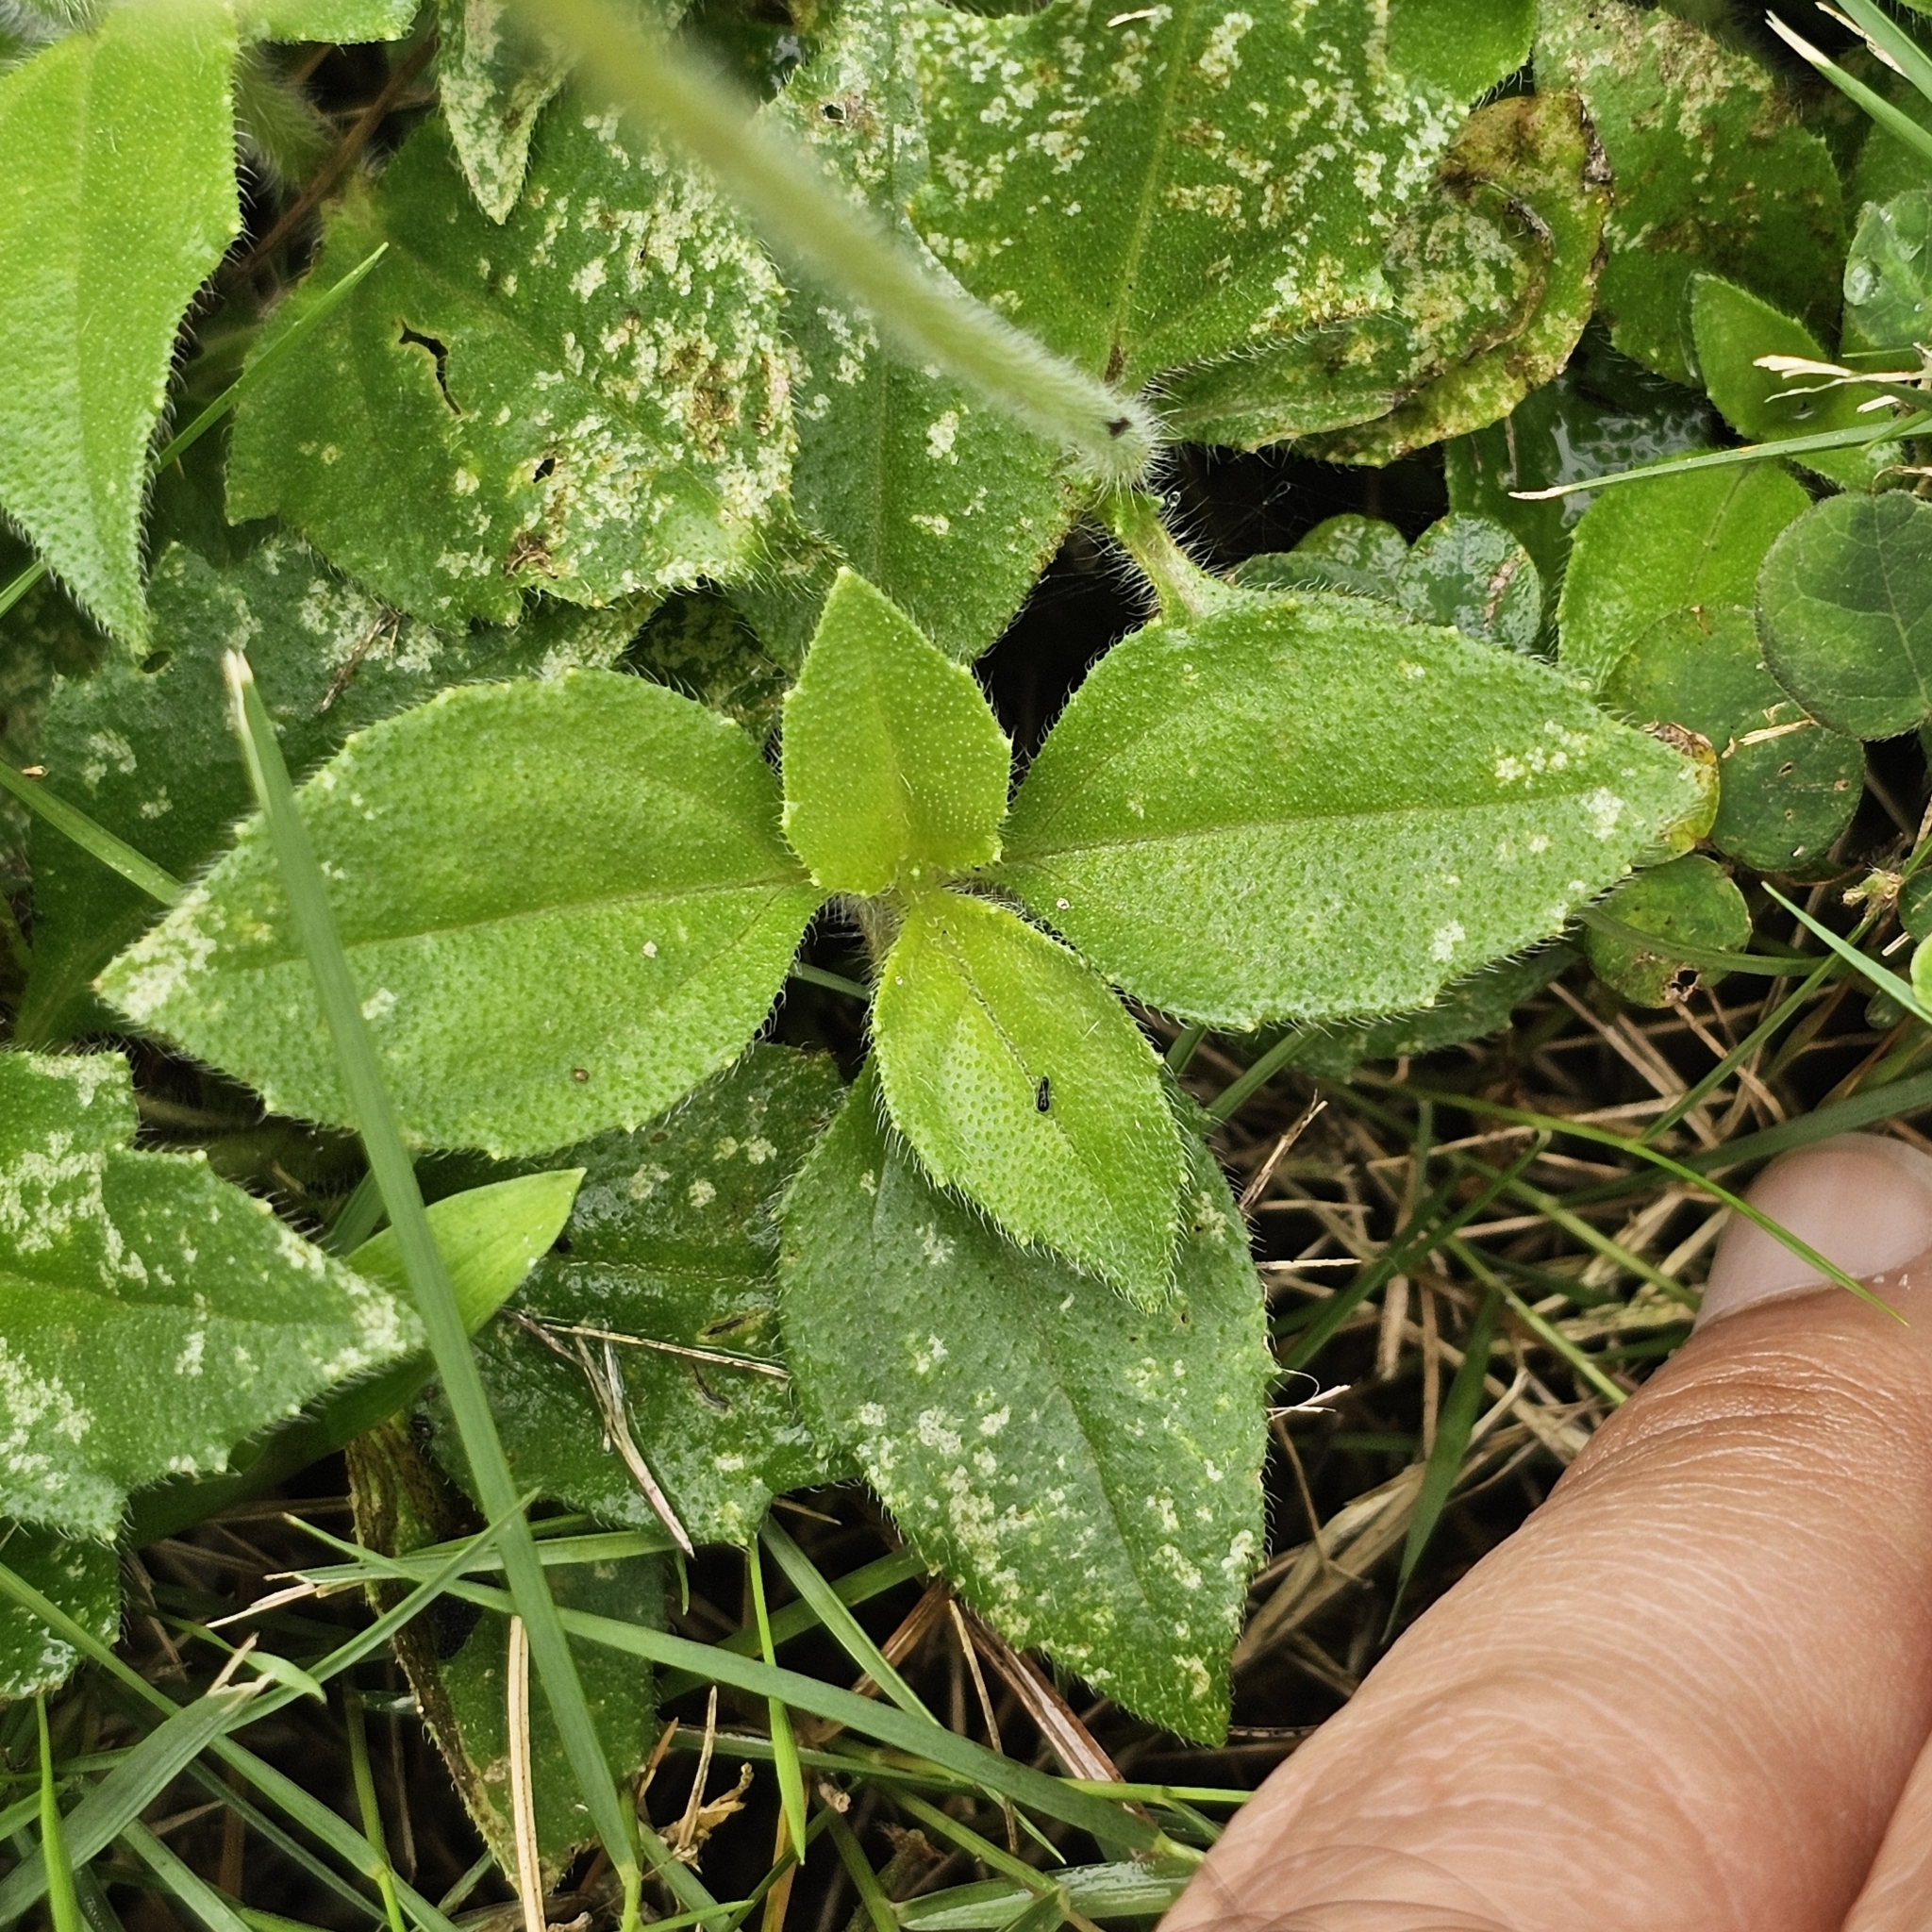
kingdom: Plantae
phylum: Tracheophyta
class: Magnoliopsida
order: Asterales
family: Asteraceae
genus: Tridax
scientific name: Tridax procumbens
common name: Coatbuttons
